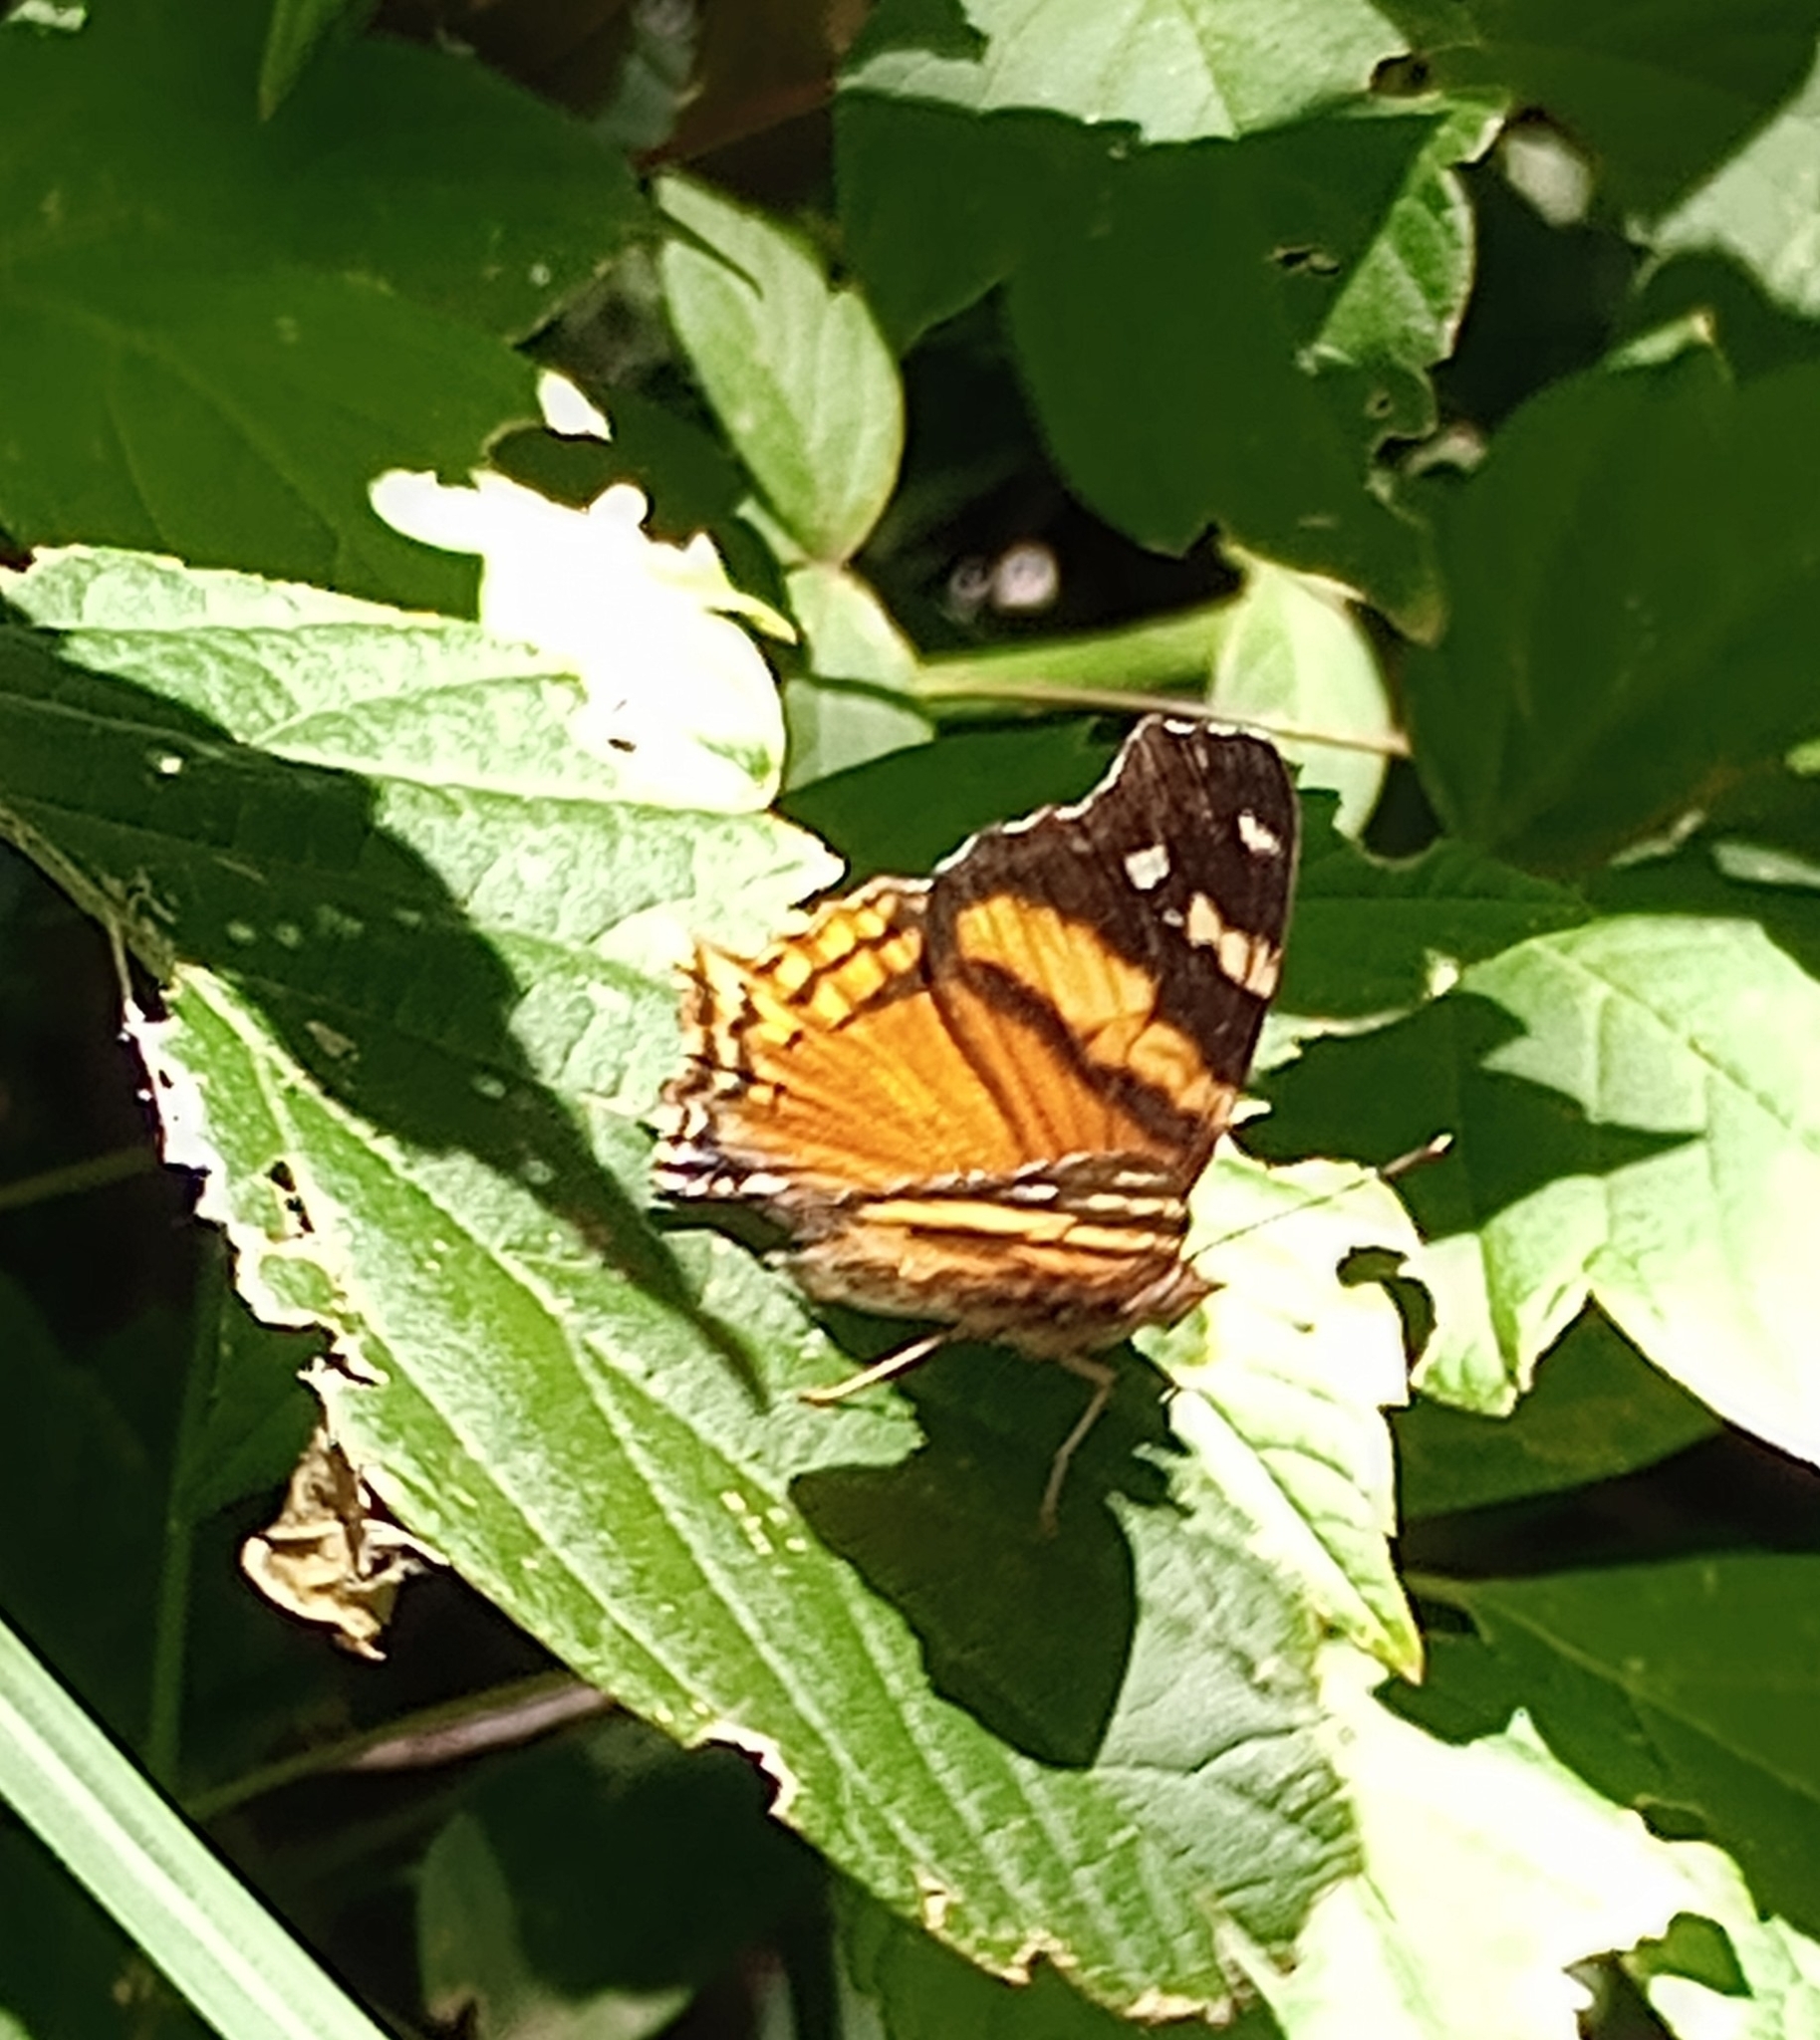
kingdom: Animalia
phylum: Arthropoda
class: Insecta
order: Lepidoptera
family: Nymphalidae
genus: Hypanartia
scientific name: Hypanartia bella
